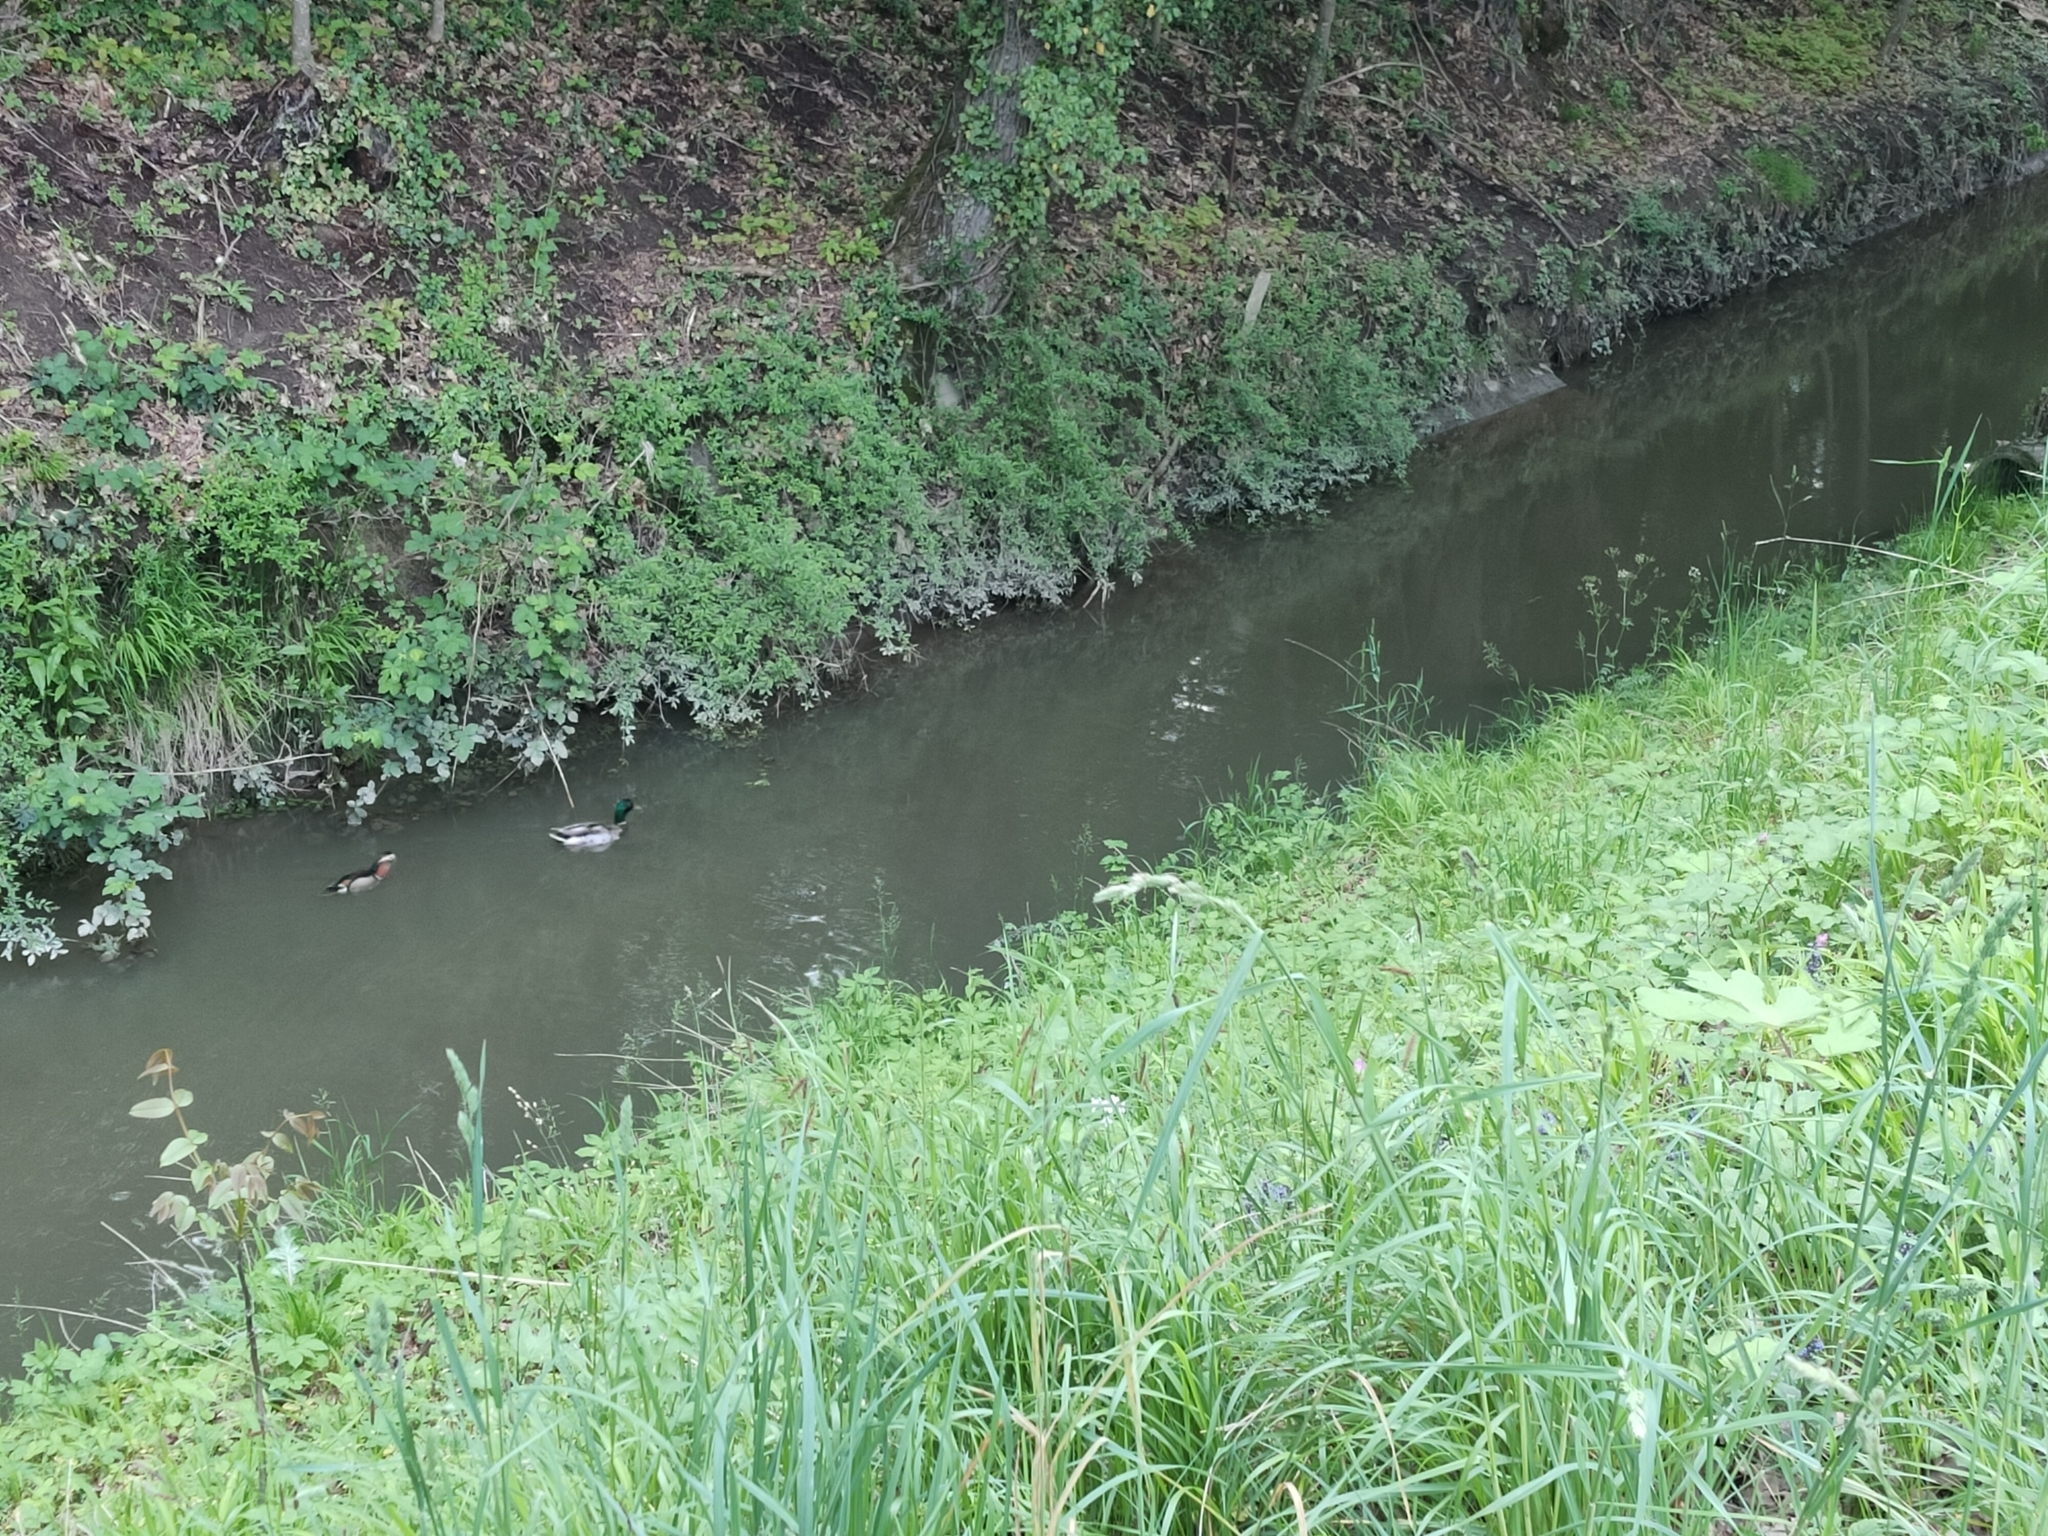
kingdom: Animalia
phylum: Chordata
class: Aves
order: Anseriformes
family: Anatidae
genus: Anas
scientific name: Anas platyrhynchos
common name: Mallard
